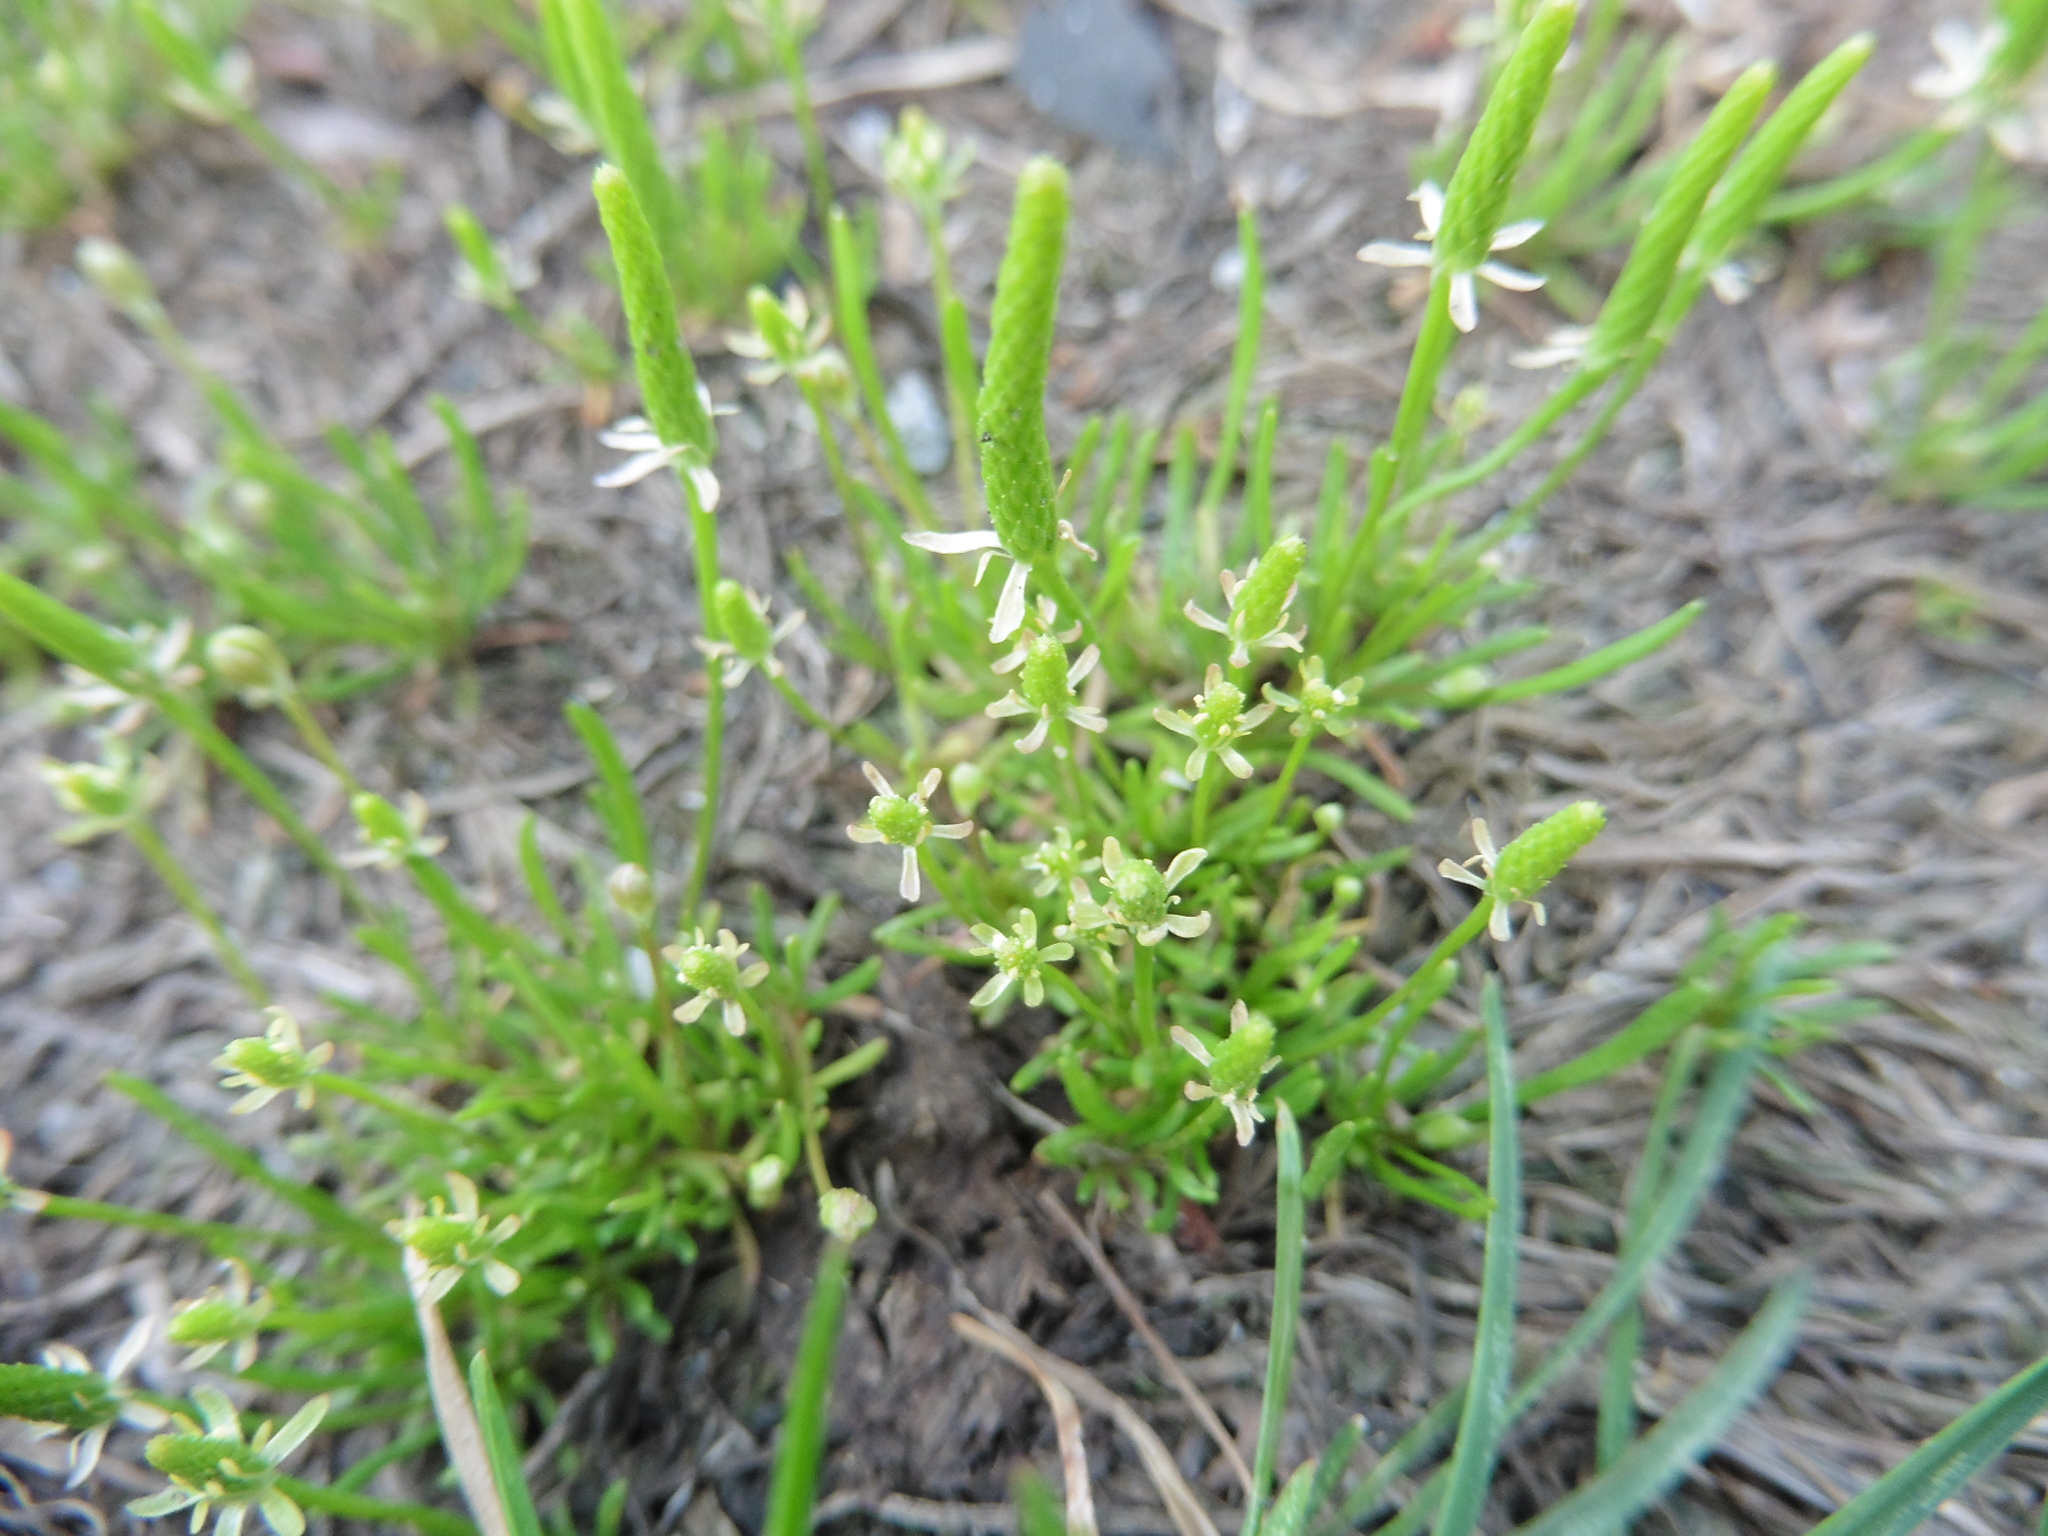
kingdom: Plantae
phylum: Tracheophyta
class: Magnoliopsida
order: Ranunculales
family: Ranunculaceae
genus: Myosurus
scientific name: Myosurus minimus
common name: Mousetail
